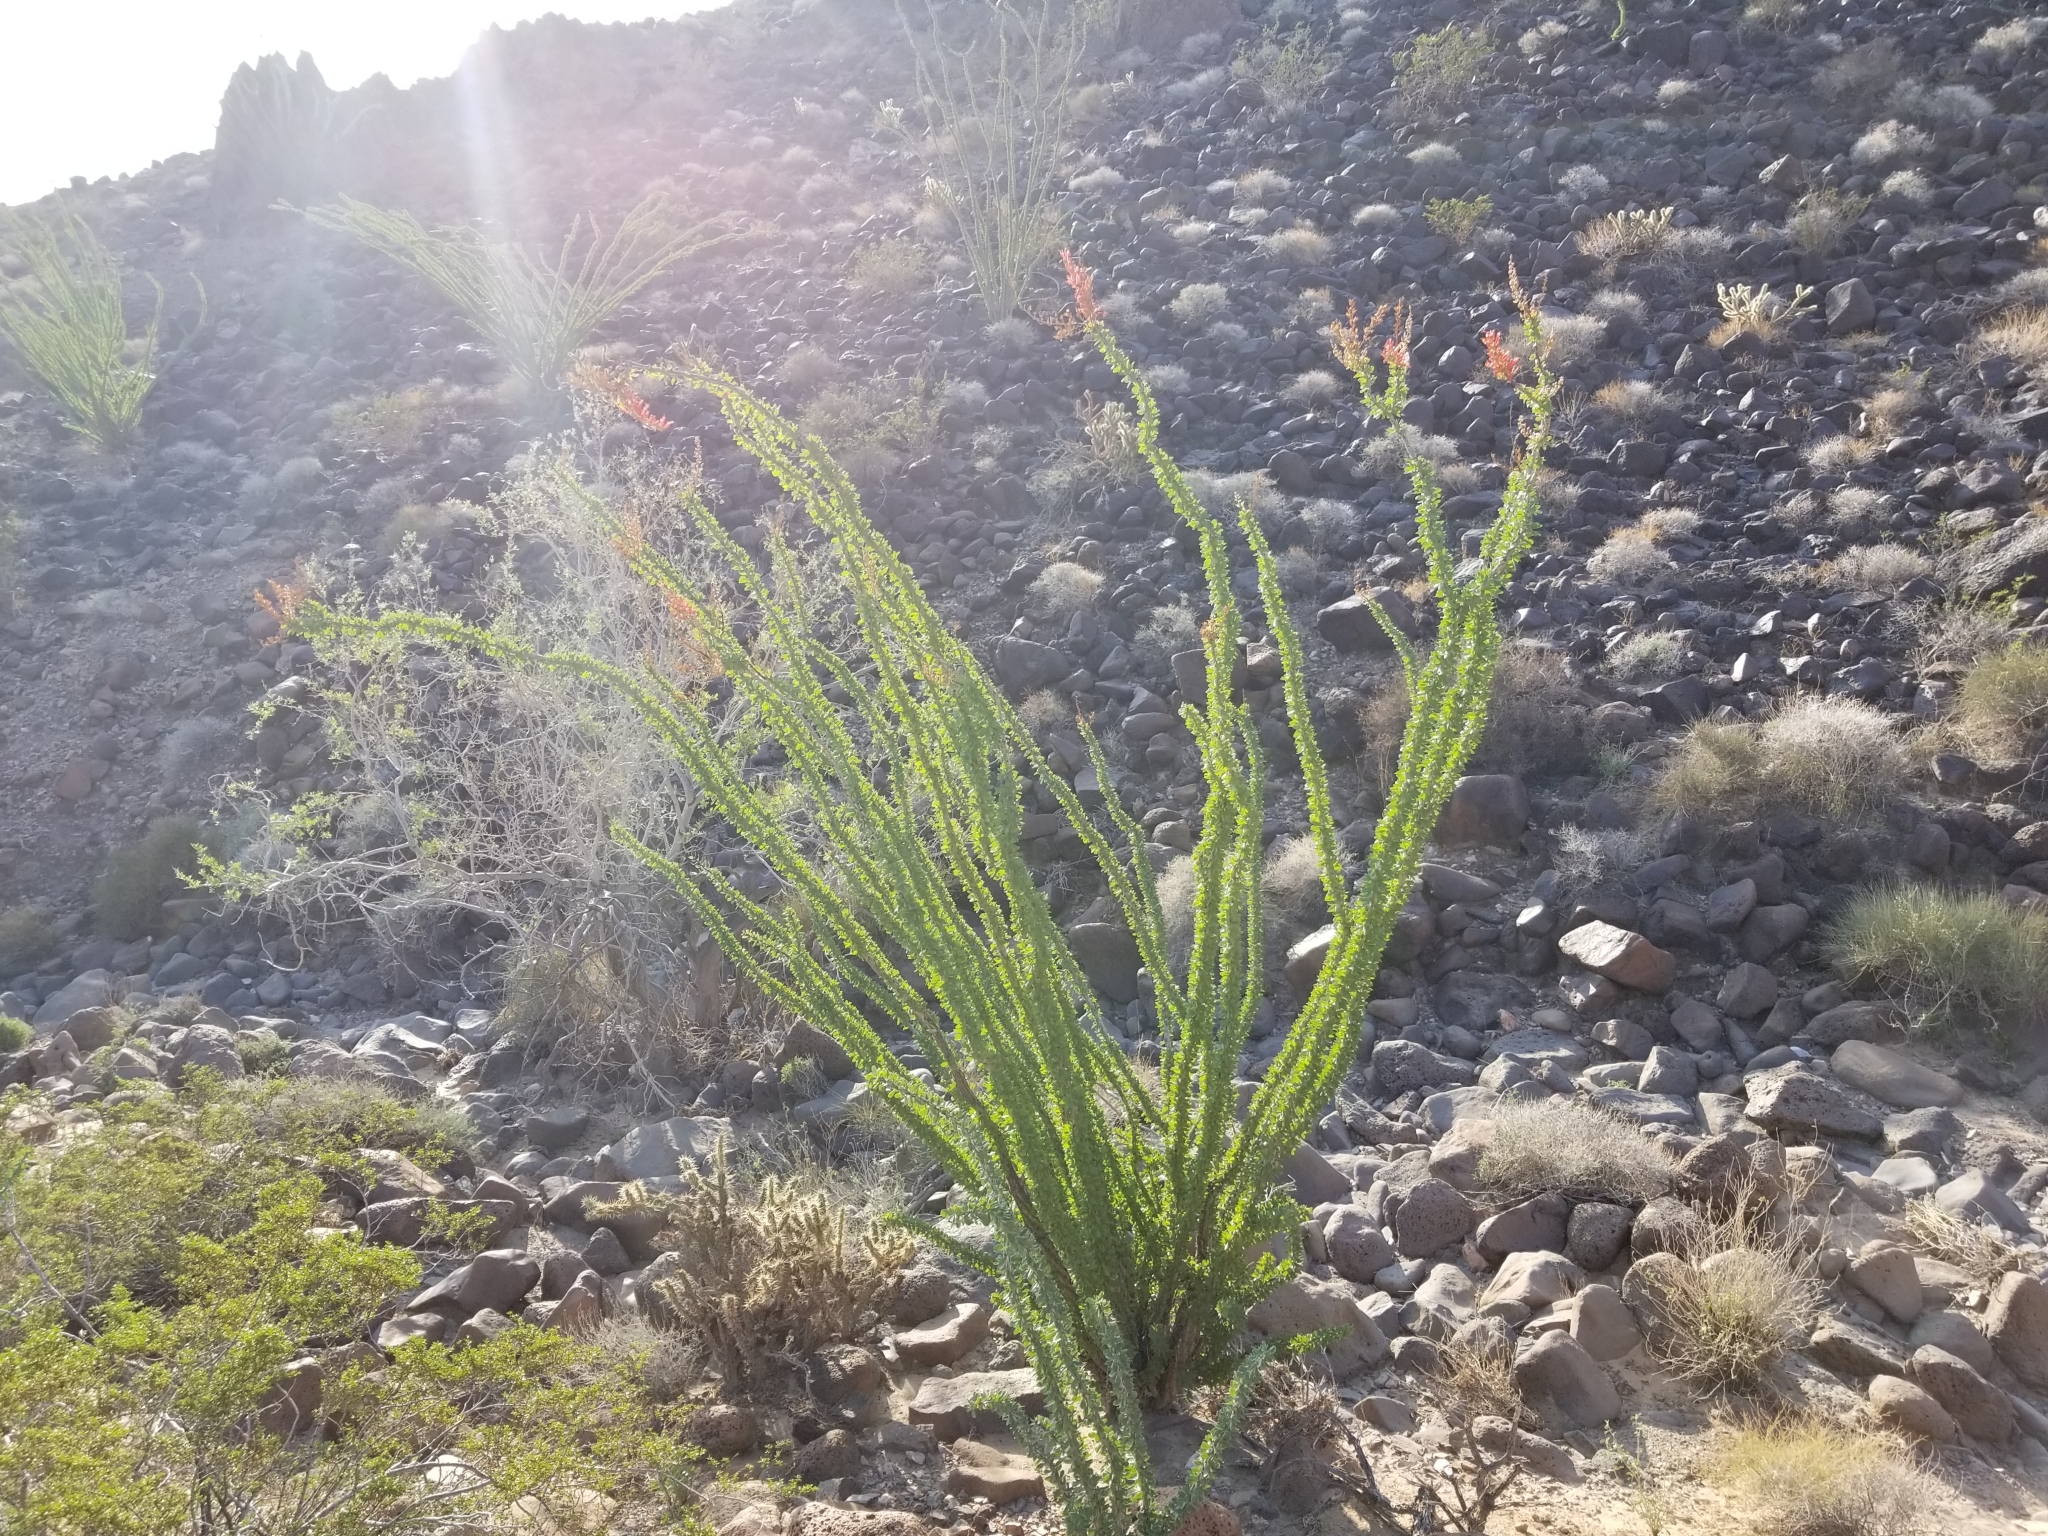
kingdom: Plantae
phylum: Tracheophyta
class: Magnoliopsida
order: Ericales
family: Fouquieriaceae
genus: Fouquieria
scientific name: Fouquieria splendens
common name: Vine-cactus
